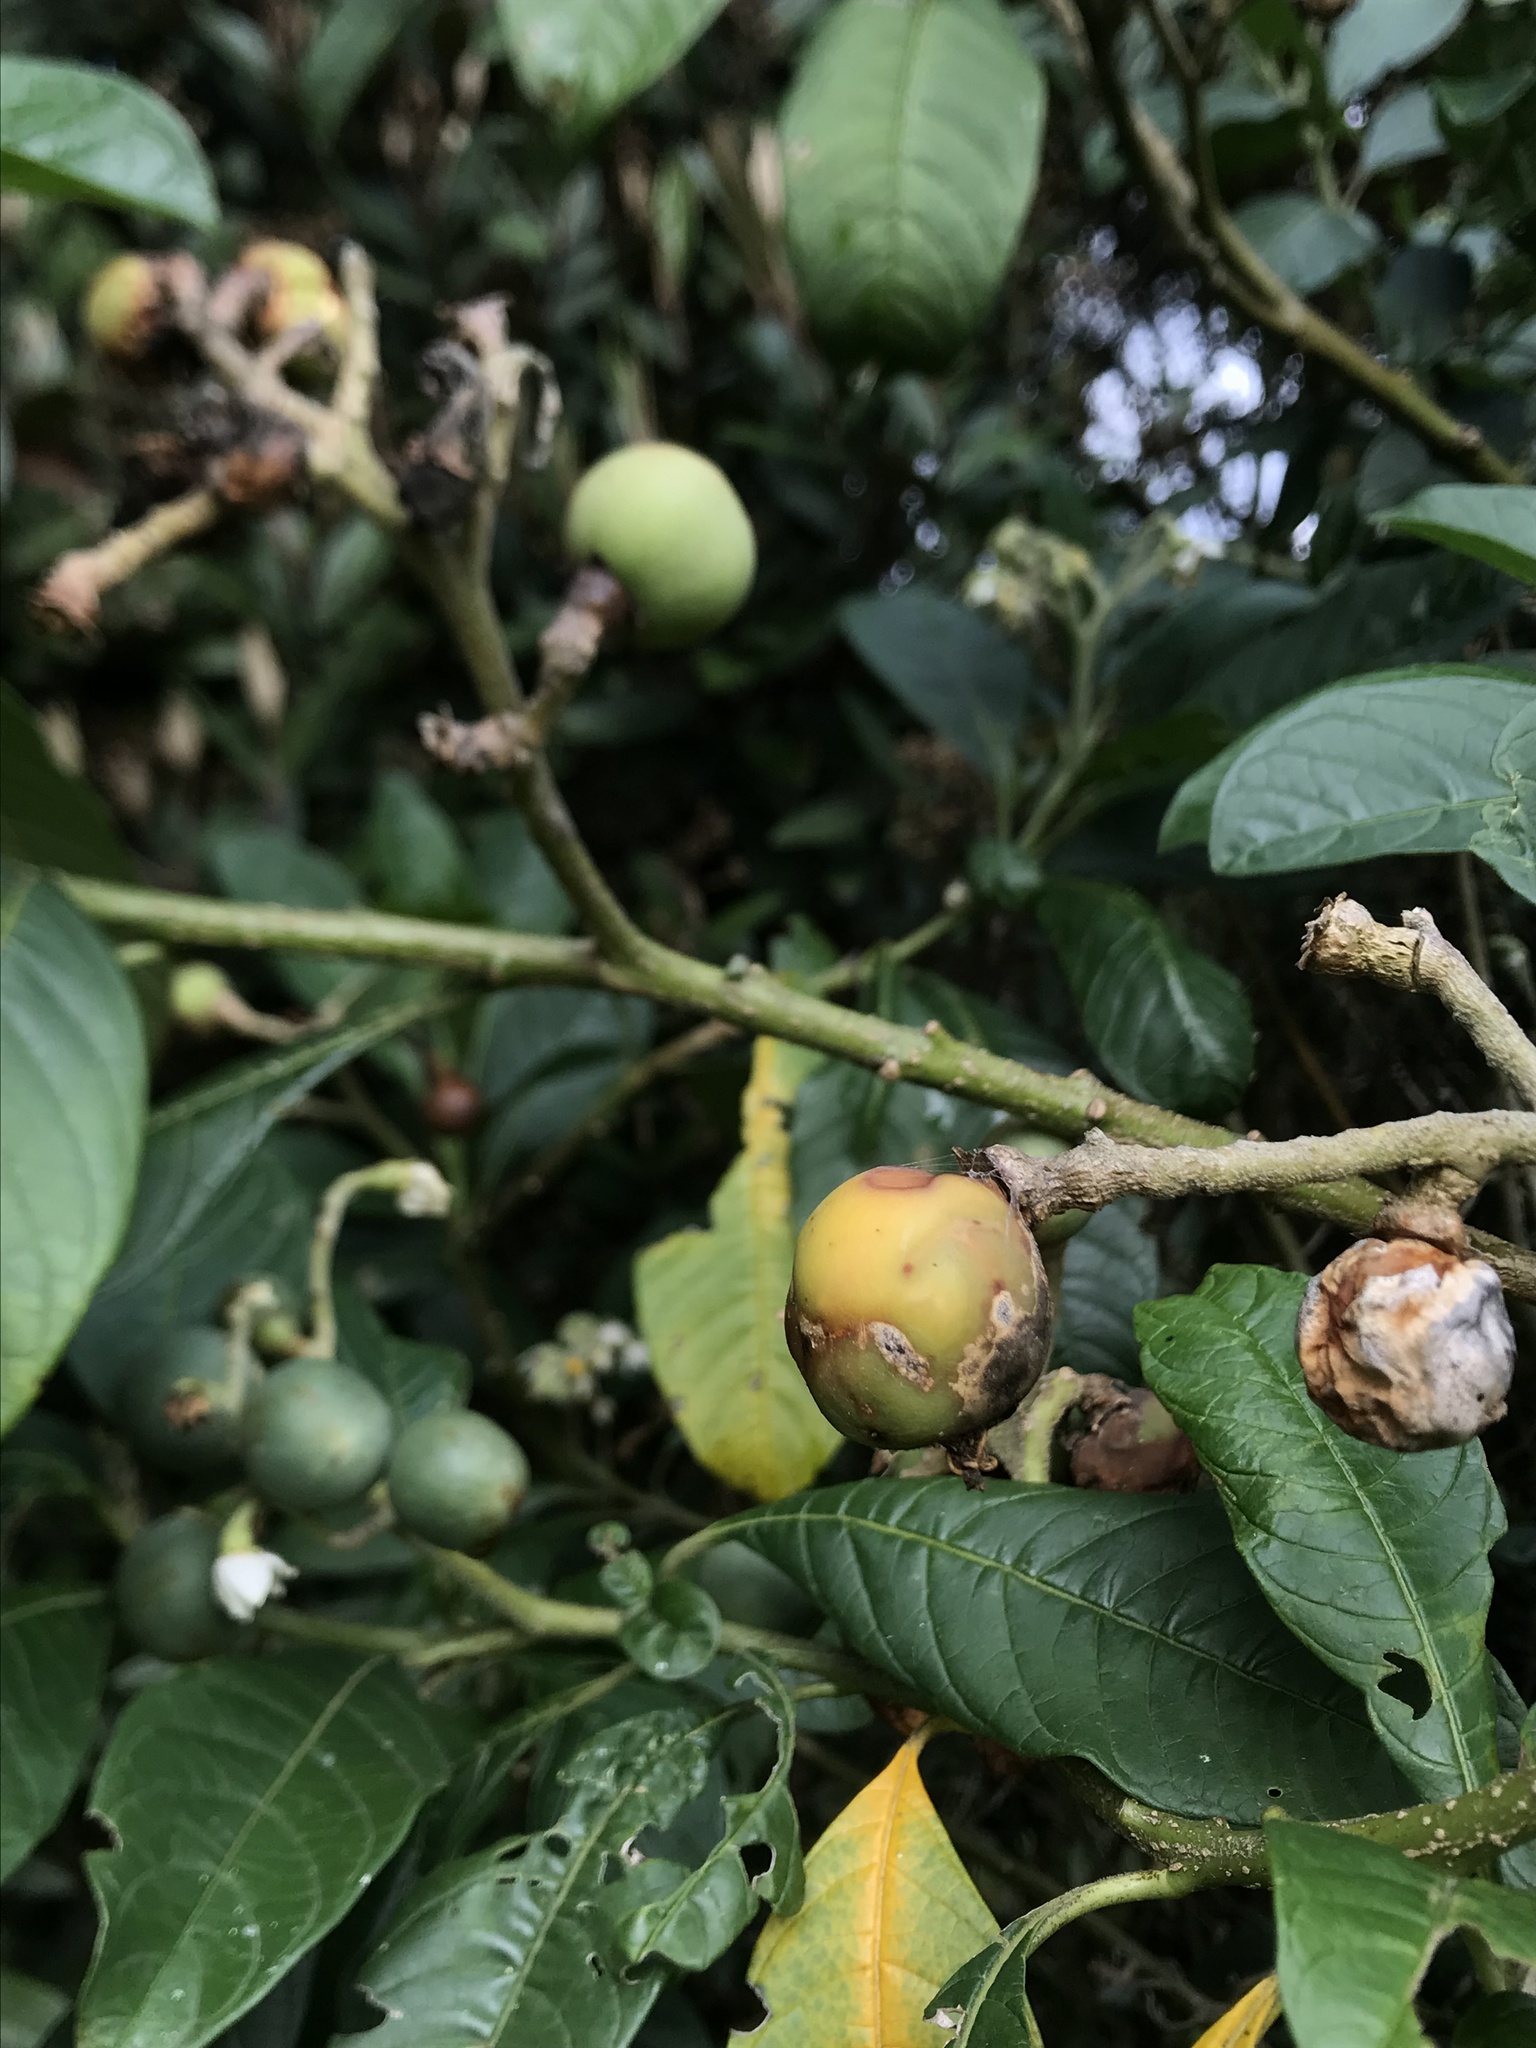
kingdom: Plantae
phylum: Tracheophyta
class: Magnoliopsida
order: Solanales
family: Solanaceae
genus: Solanum
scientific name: Solanum oblongifolium
